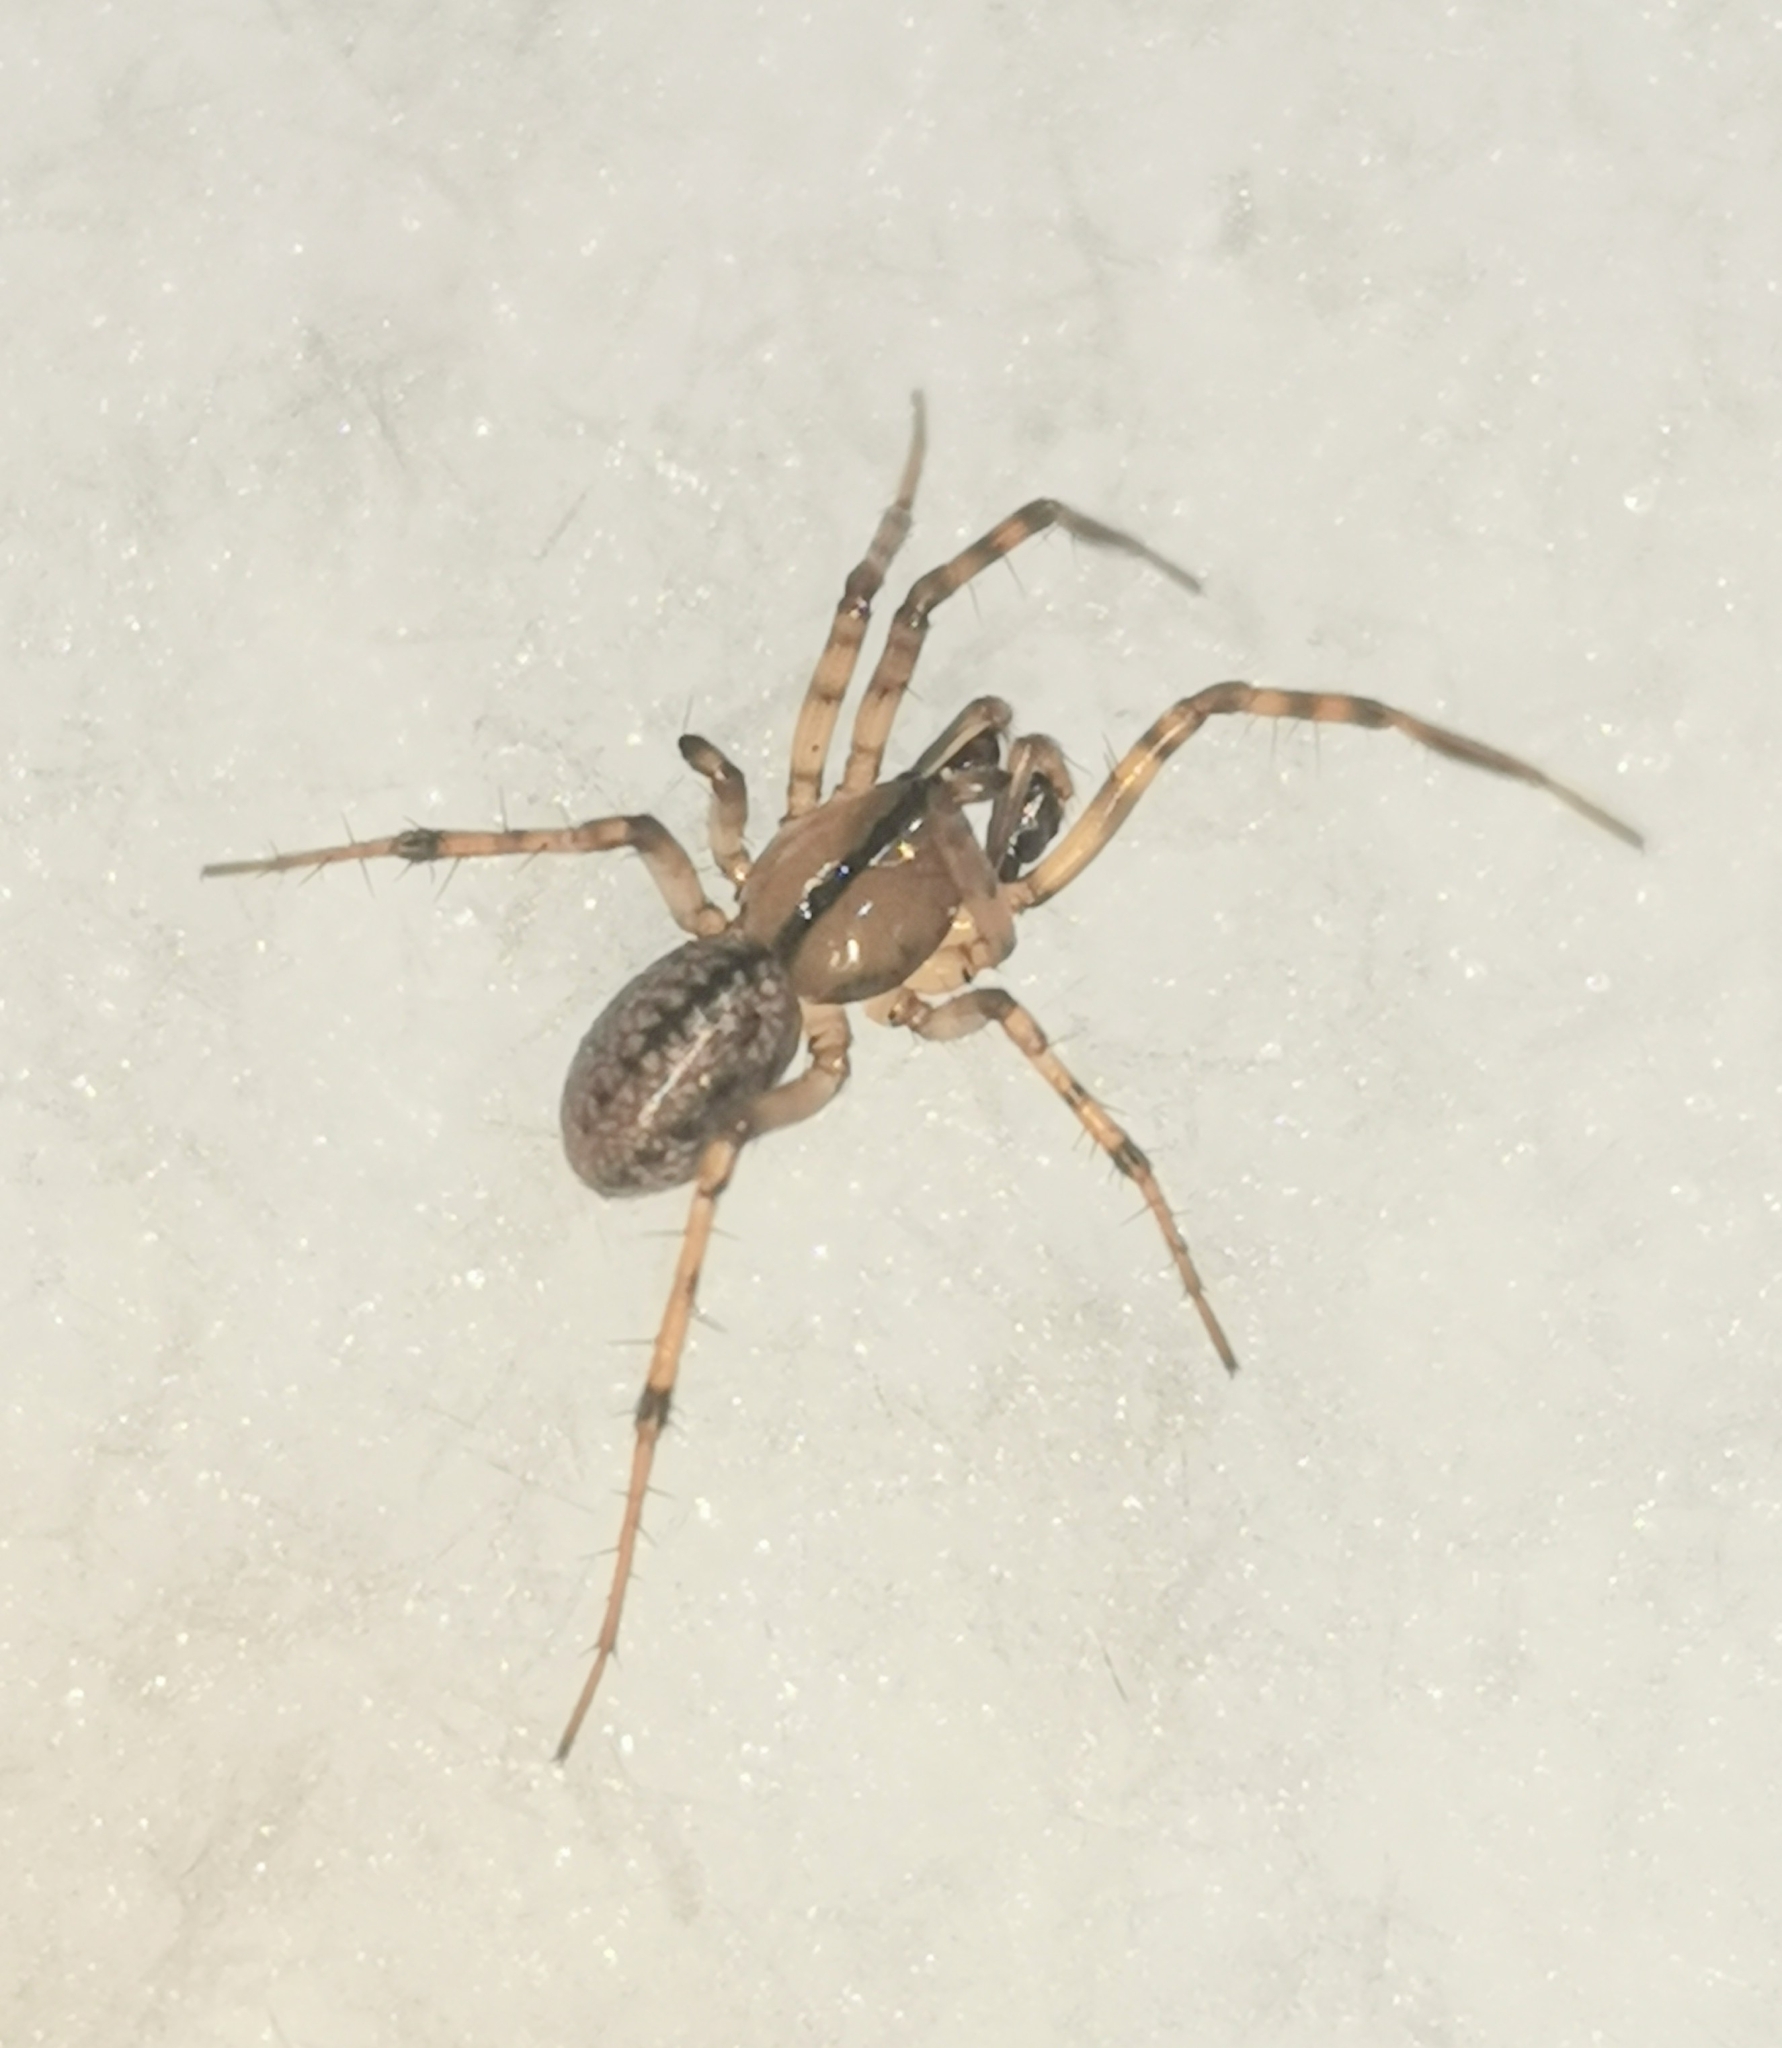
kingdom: Animalia
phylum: Arthropoda
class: Arachnida
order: Araneae
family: Linyphiidae
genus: Stemonyphantes
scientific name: Stemonyphantes lineatus
